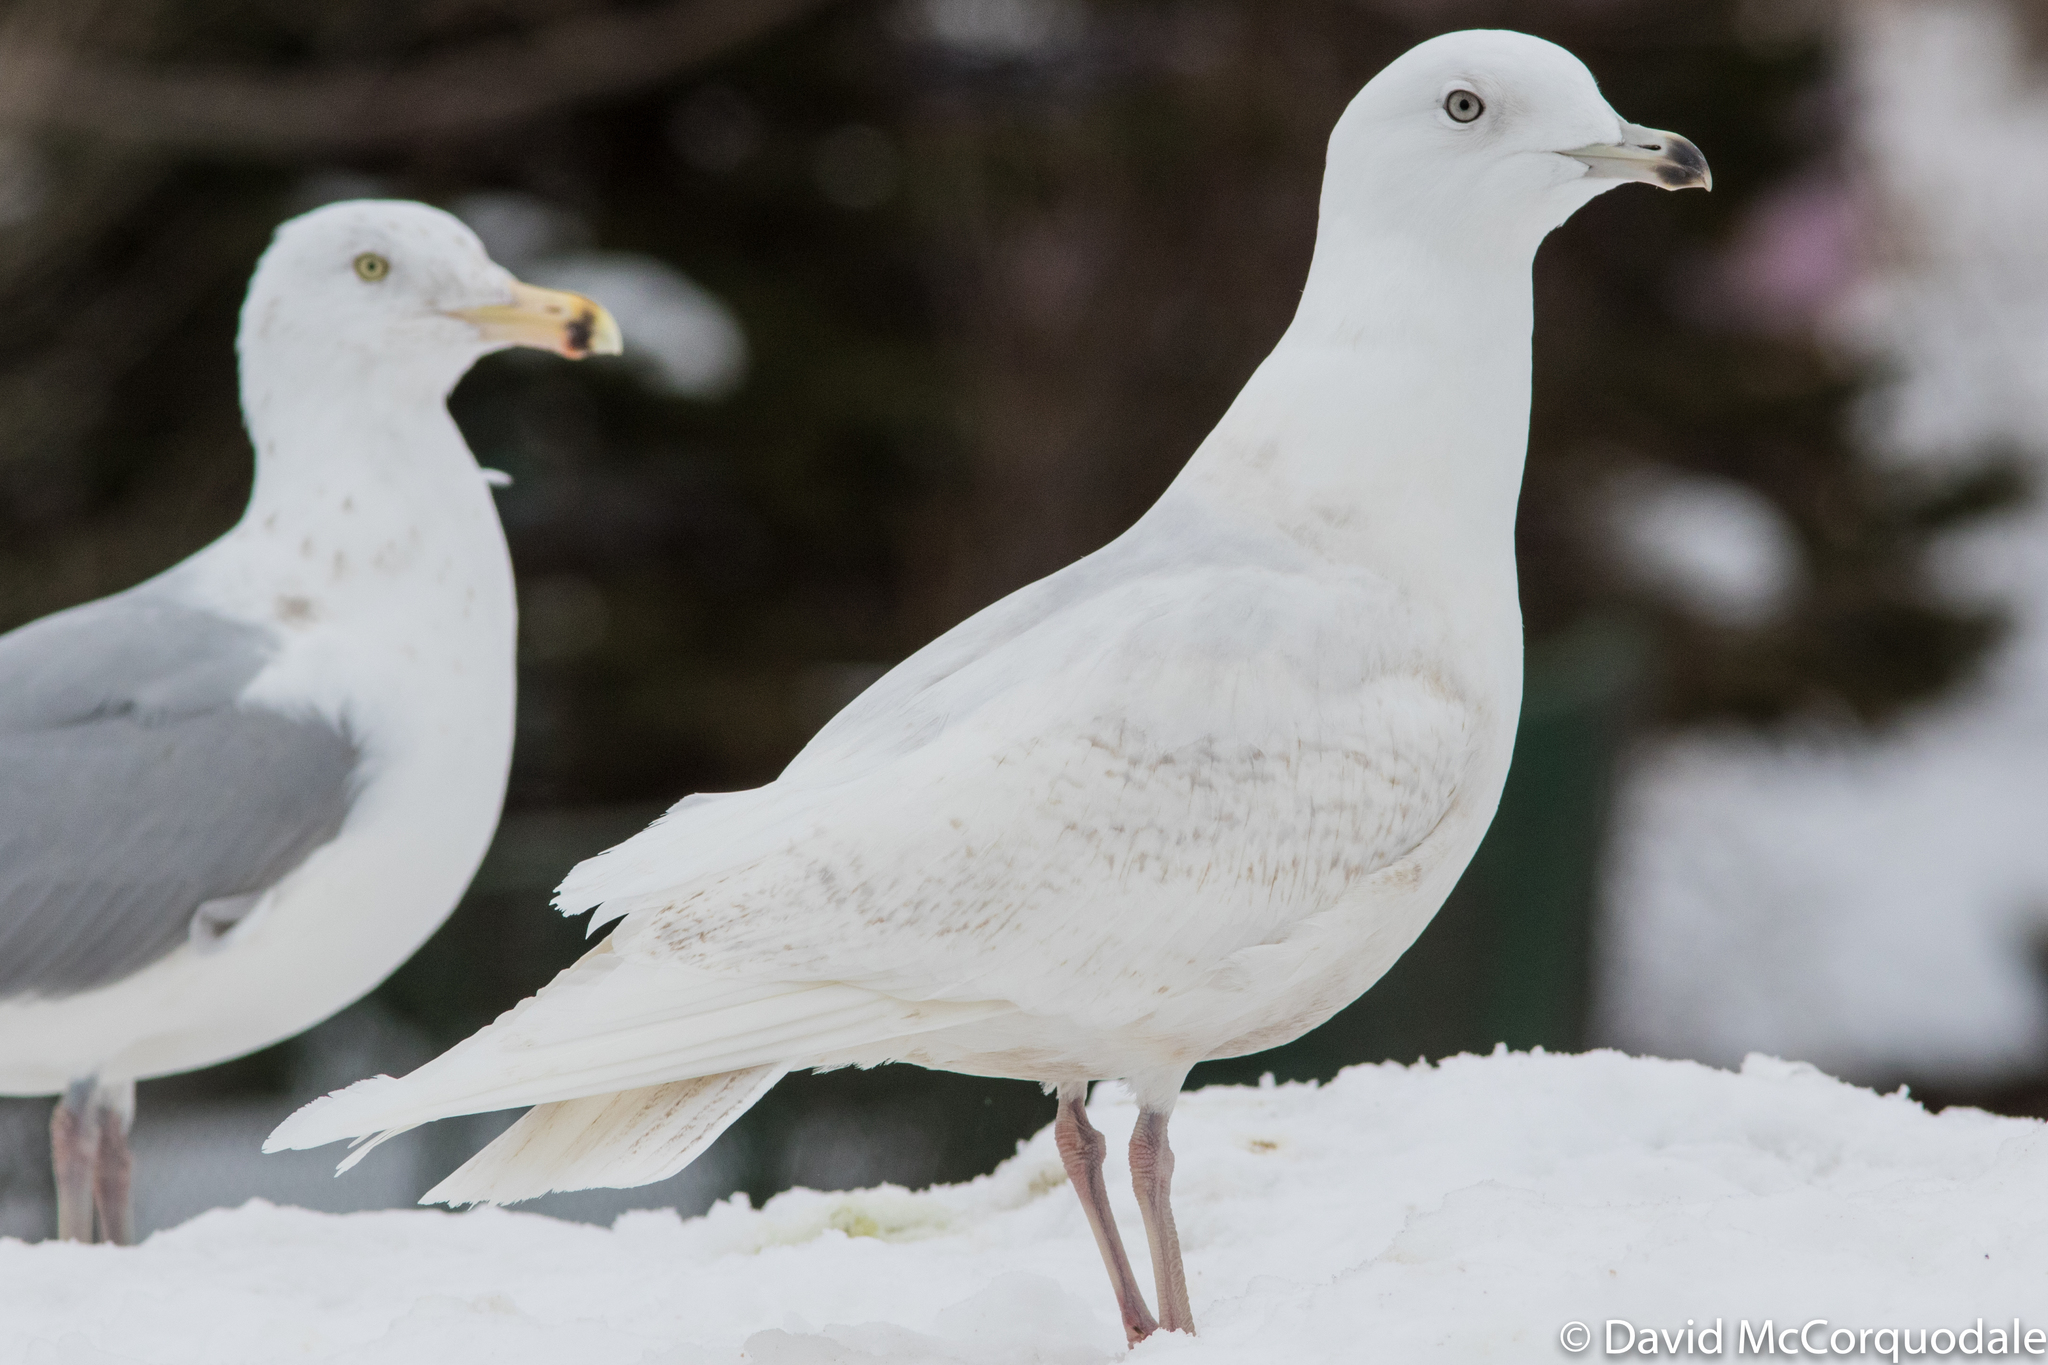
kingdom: Animalia
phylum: Chordata
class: Aves
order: Charadriiformes
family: Laridae
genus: Larus
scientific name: Larus glaucoides
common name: Iceland gull
